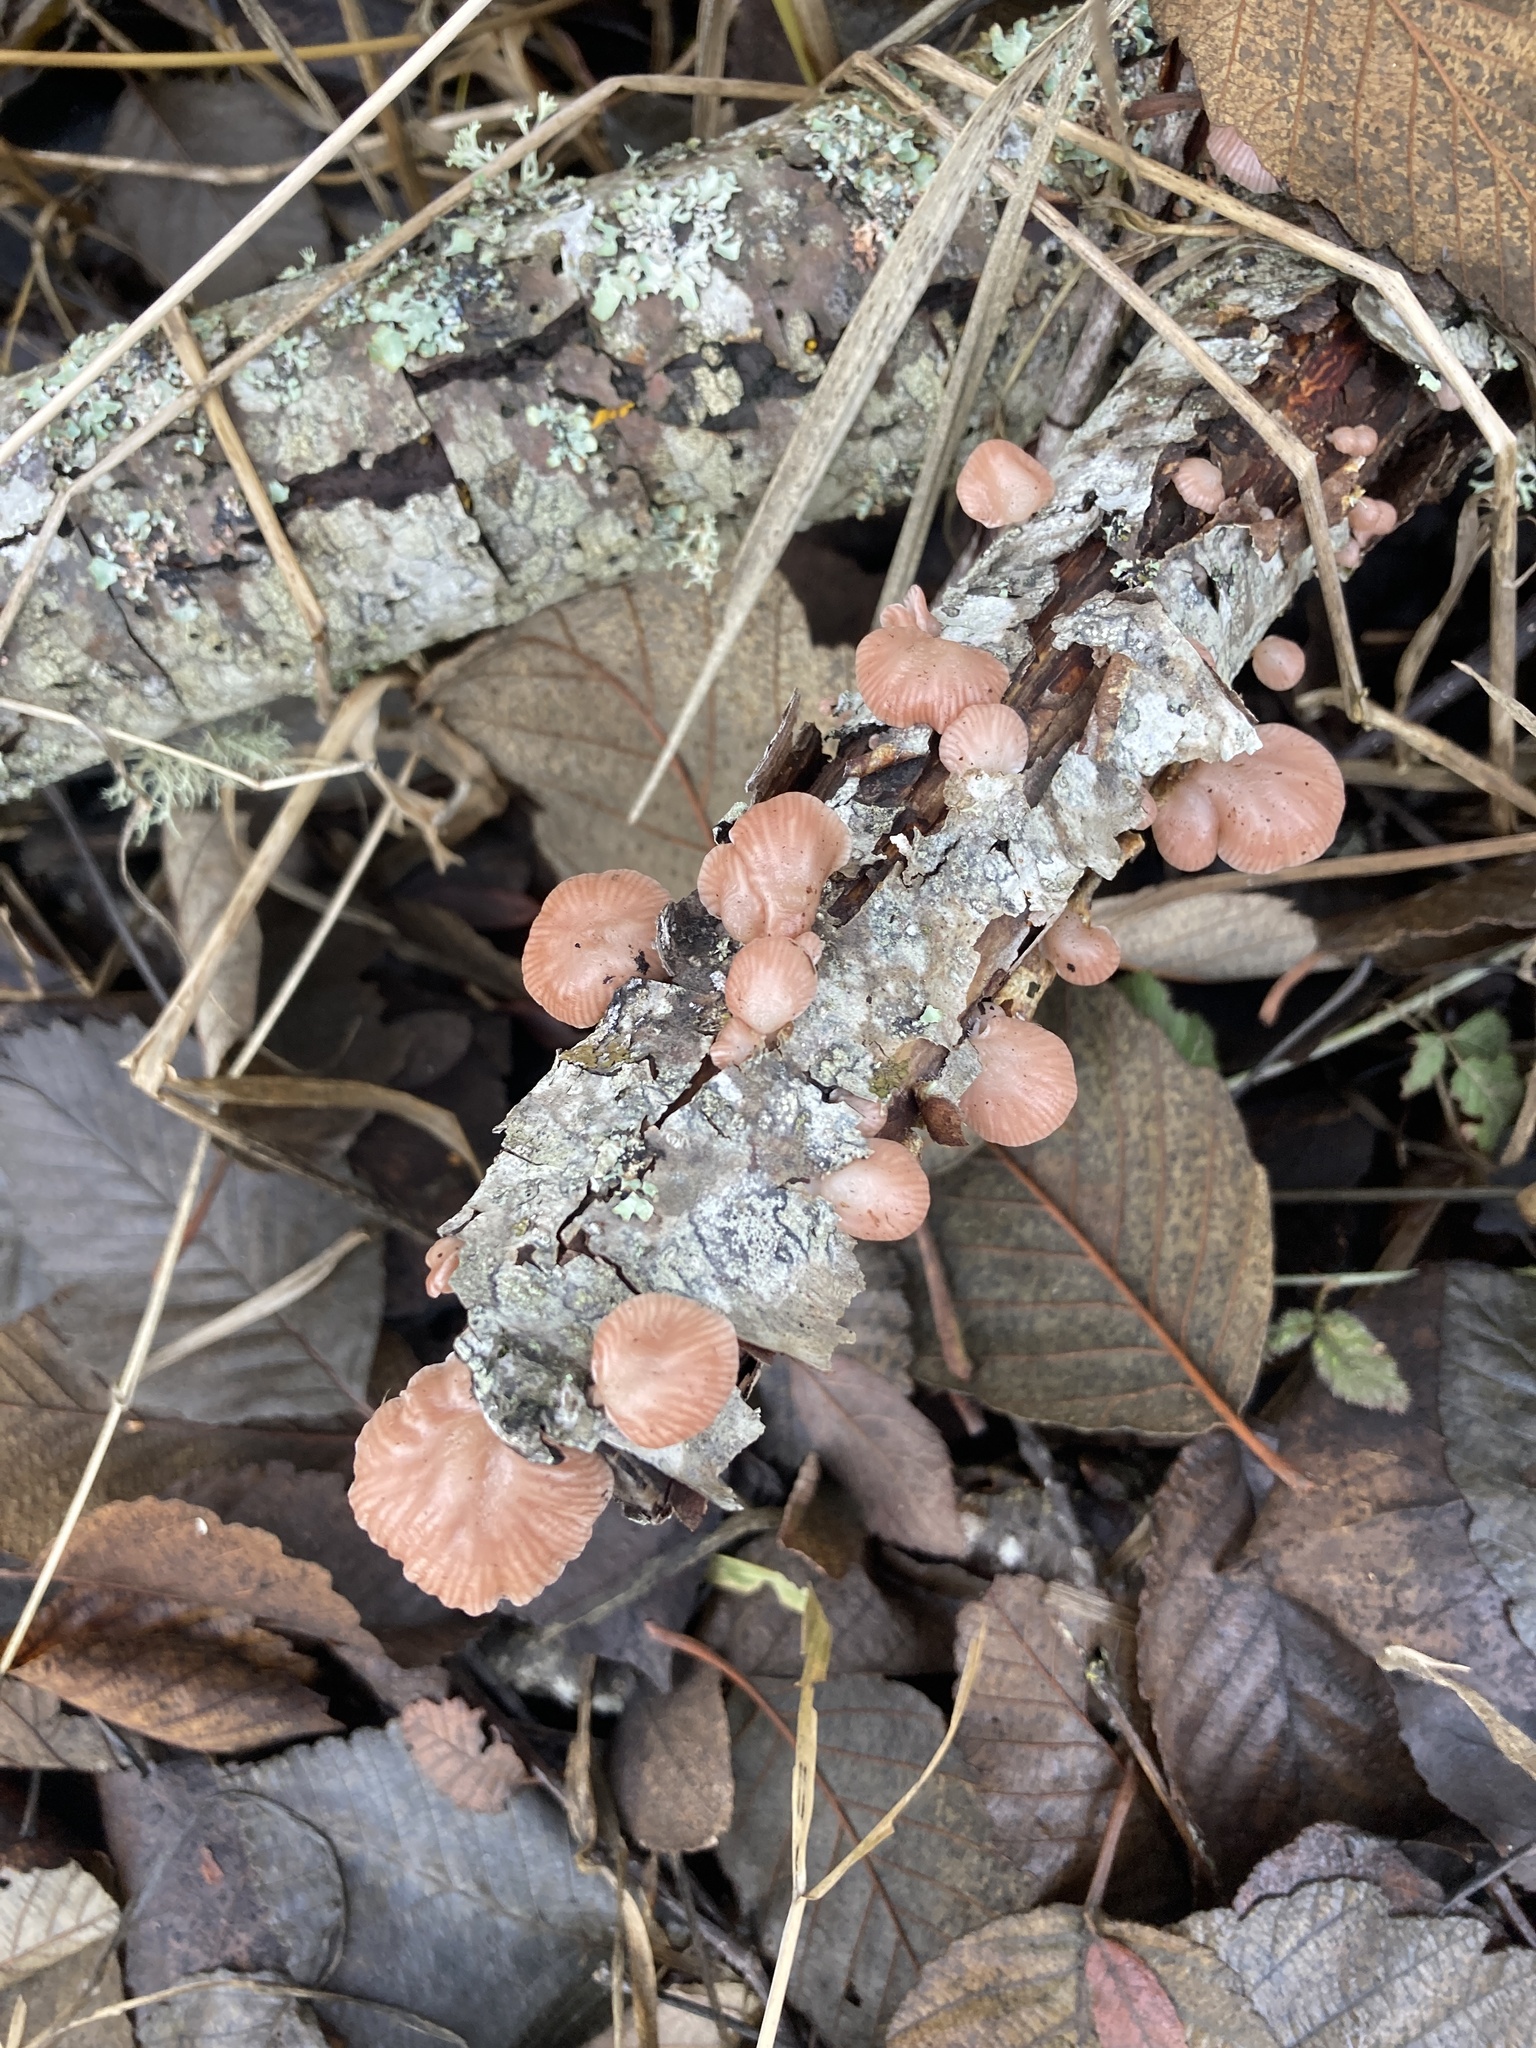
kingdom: Fungi
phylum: Basidiomycota
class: Agaricomycetes
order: Agaricales
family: Mycenaceae
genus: Panellus
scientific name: Panellus longinquus
